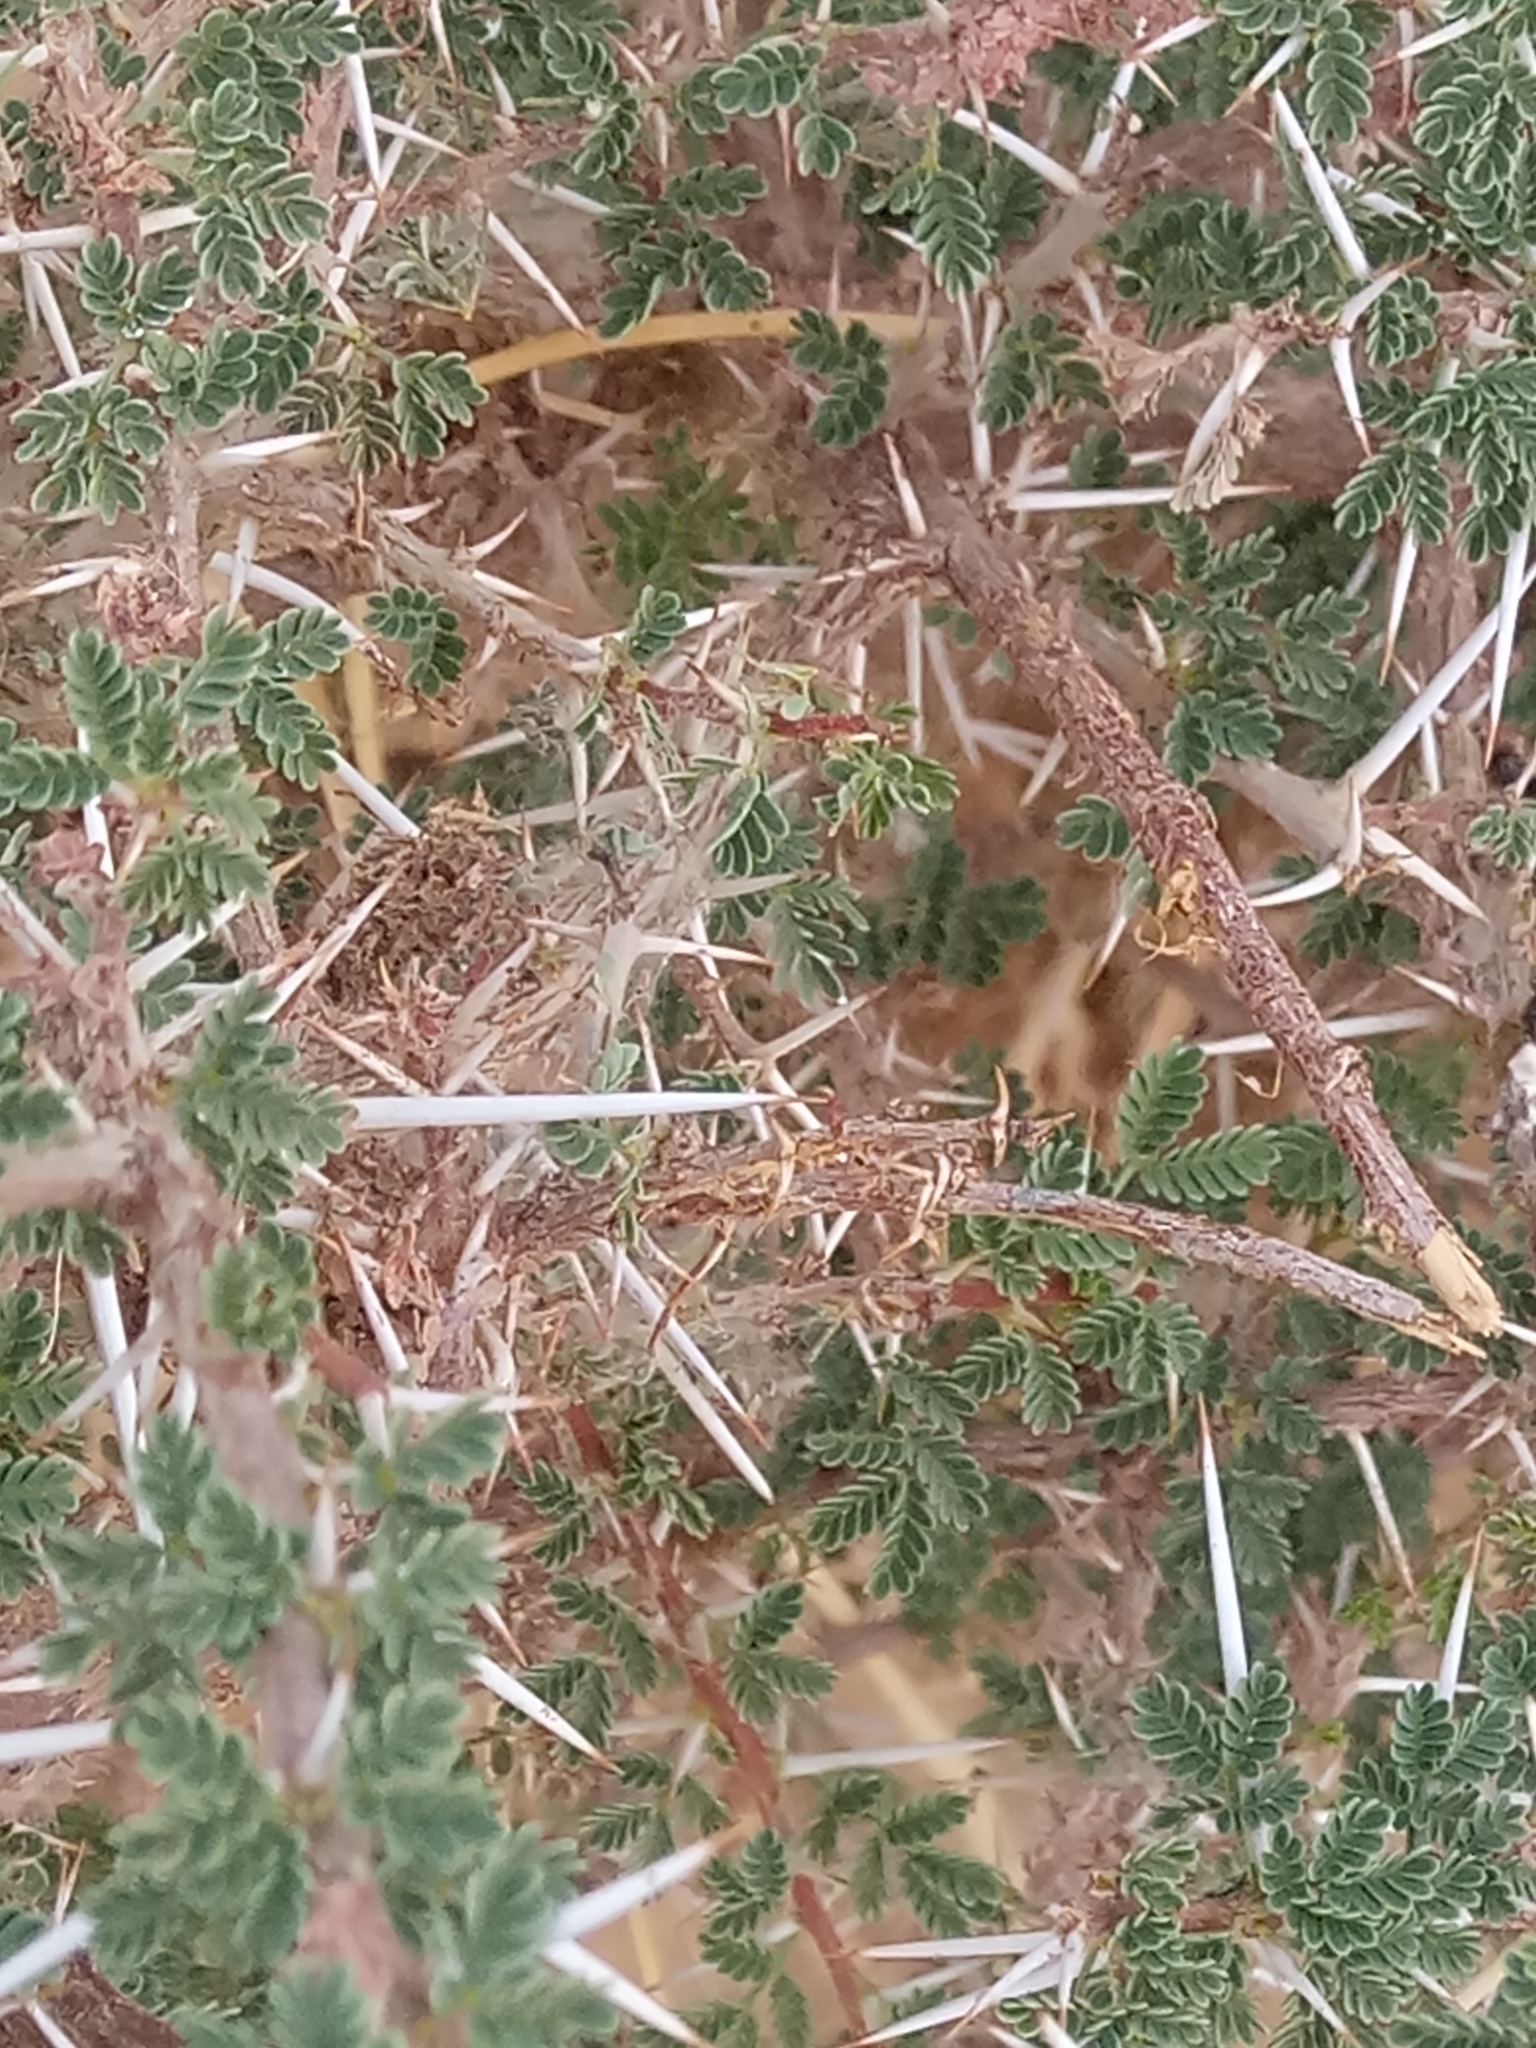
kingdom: Plantae
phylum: Tracheophyta
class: Magnoliopsida
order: Fabales
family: Fabaceae
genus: Vachellia
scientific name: Vachellia flava
